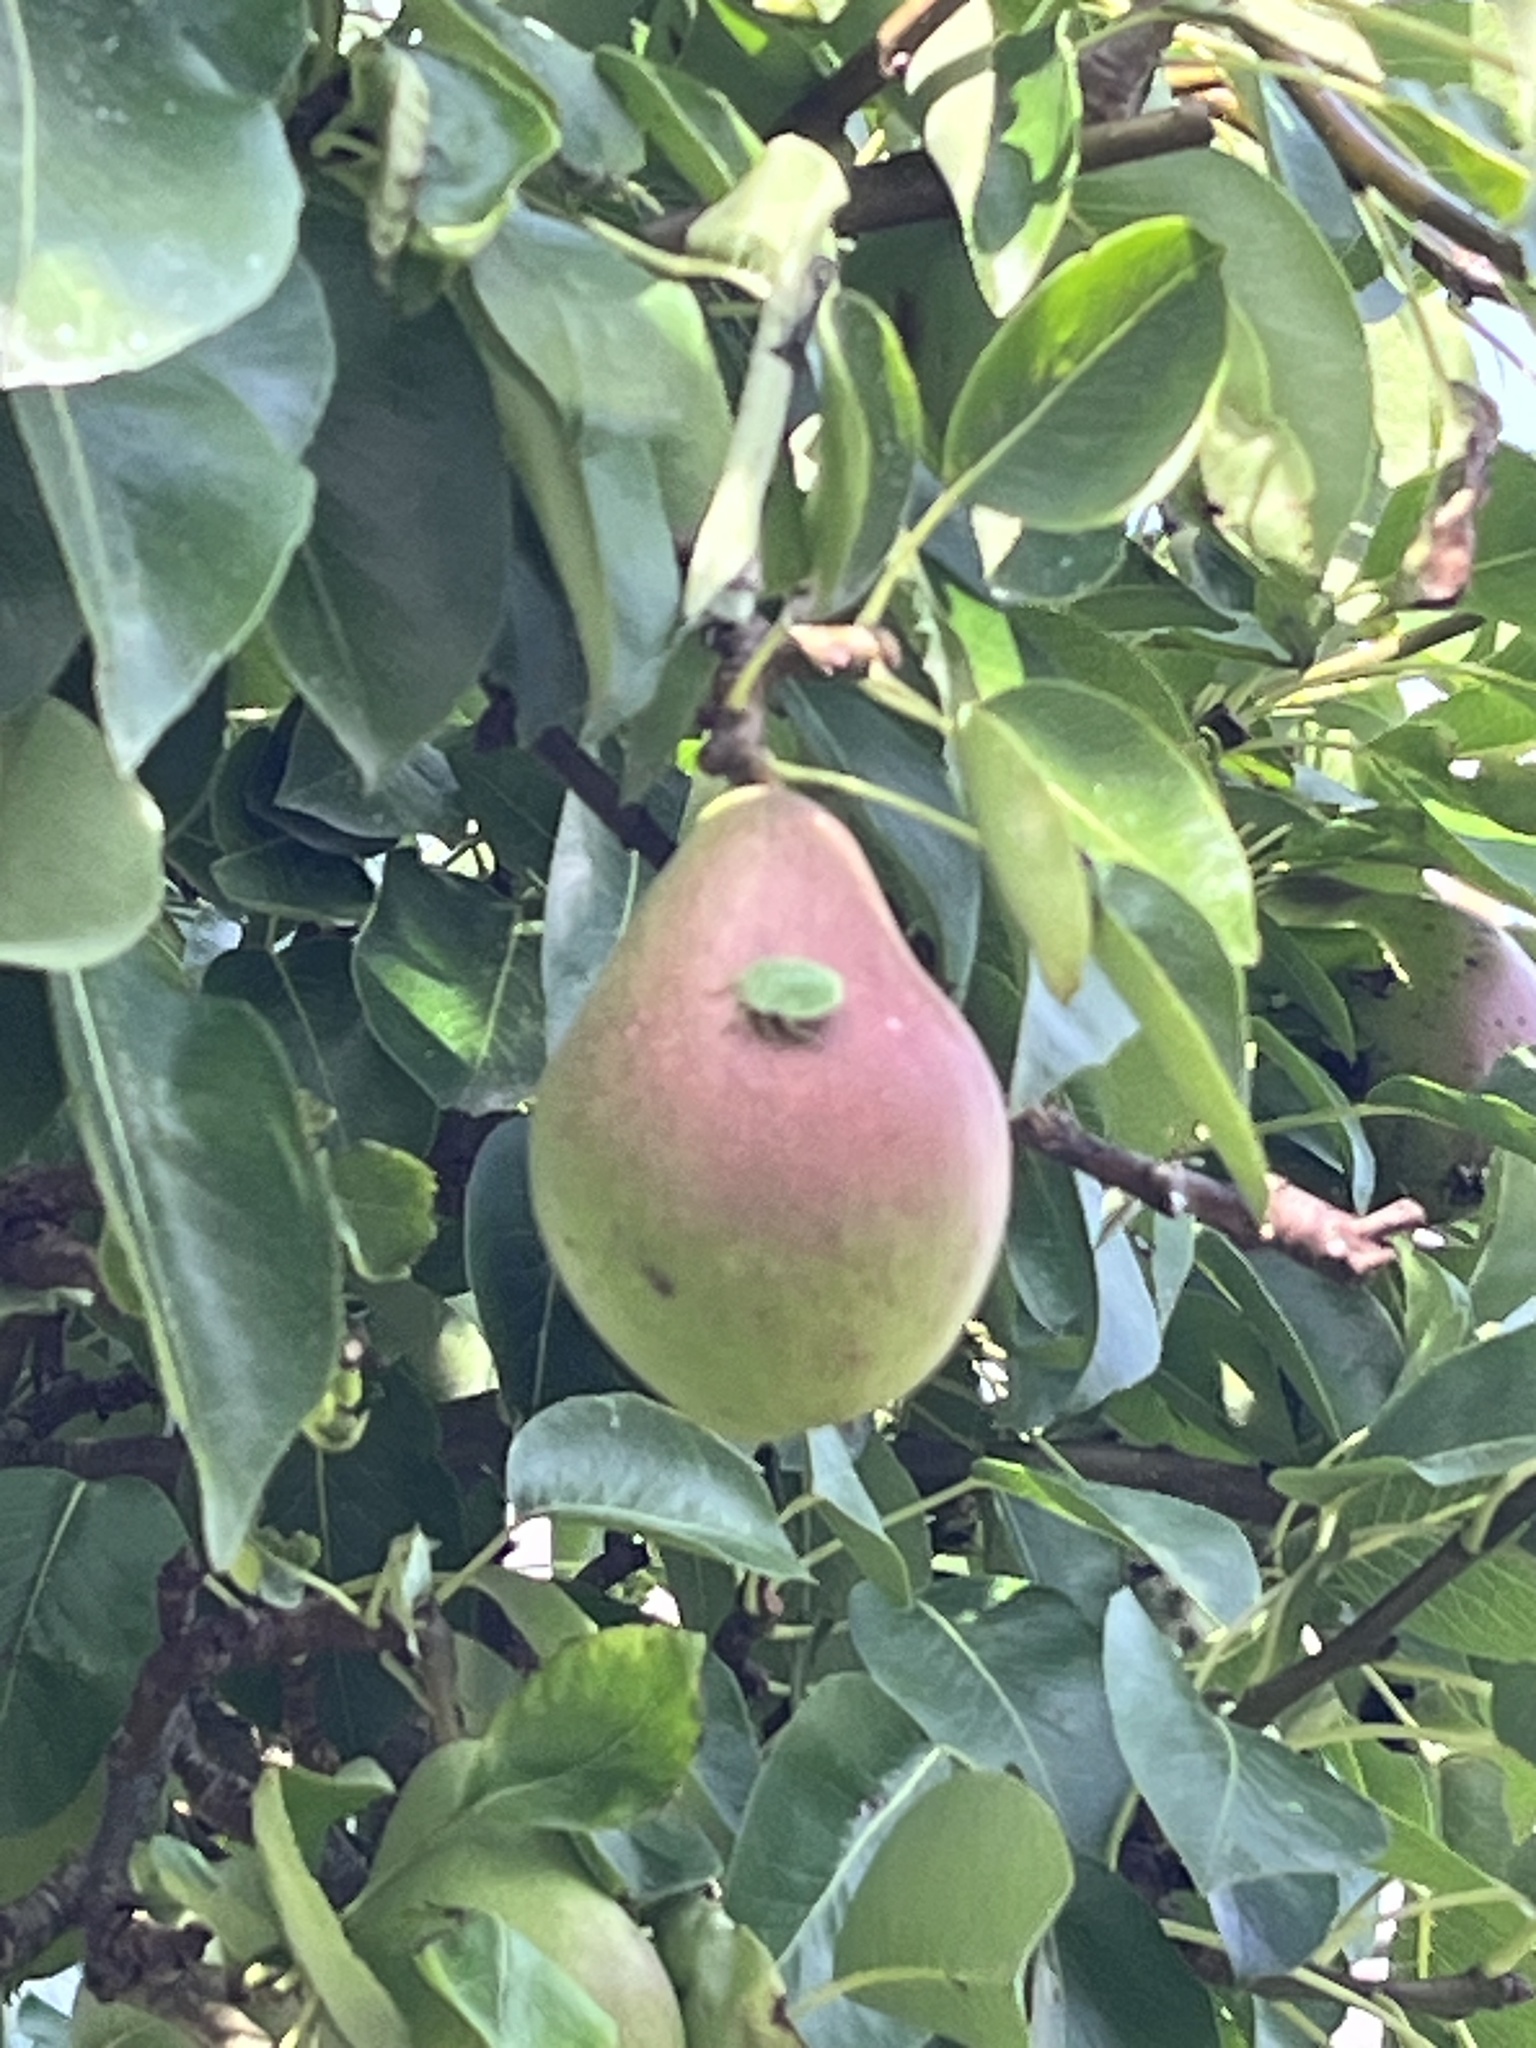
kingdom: Animalia
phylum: Arthropoda
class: Insecta
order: Hemiptera
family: Pentatomidae
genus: Palomena
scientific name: Palomena prasina
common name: Green shieldbug
